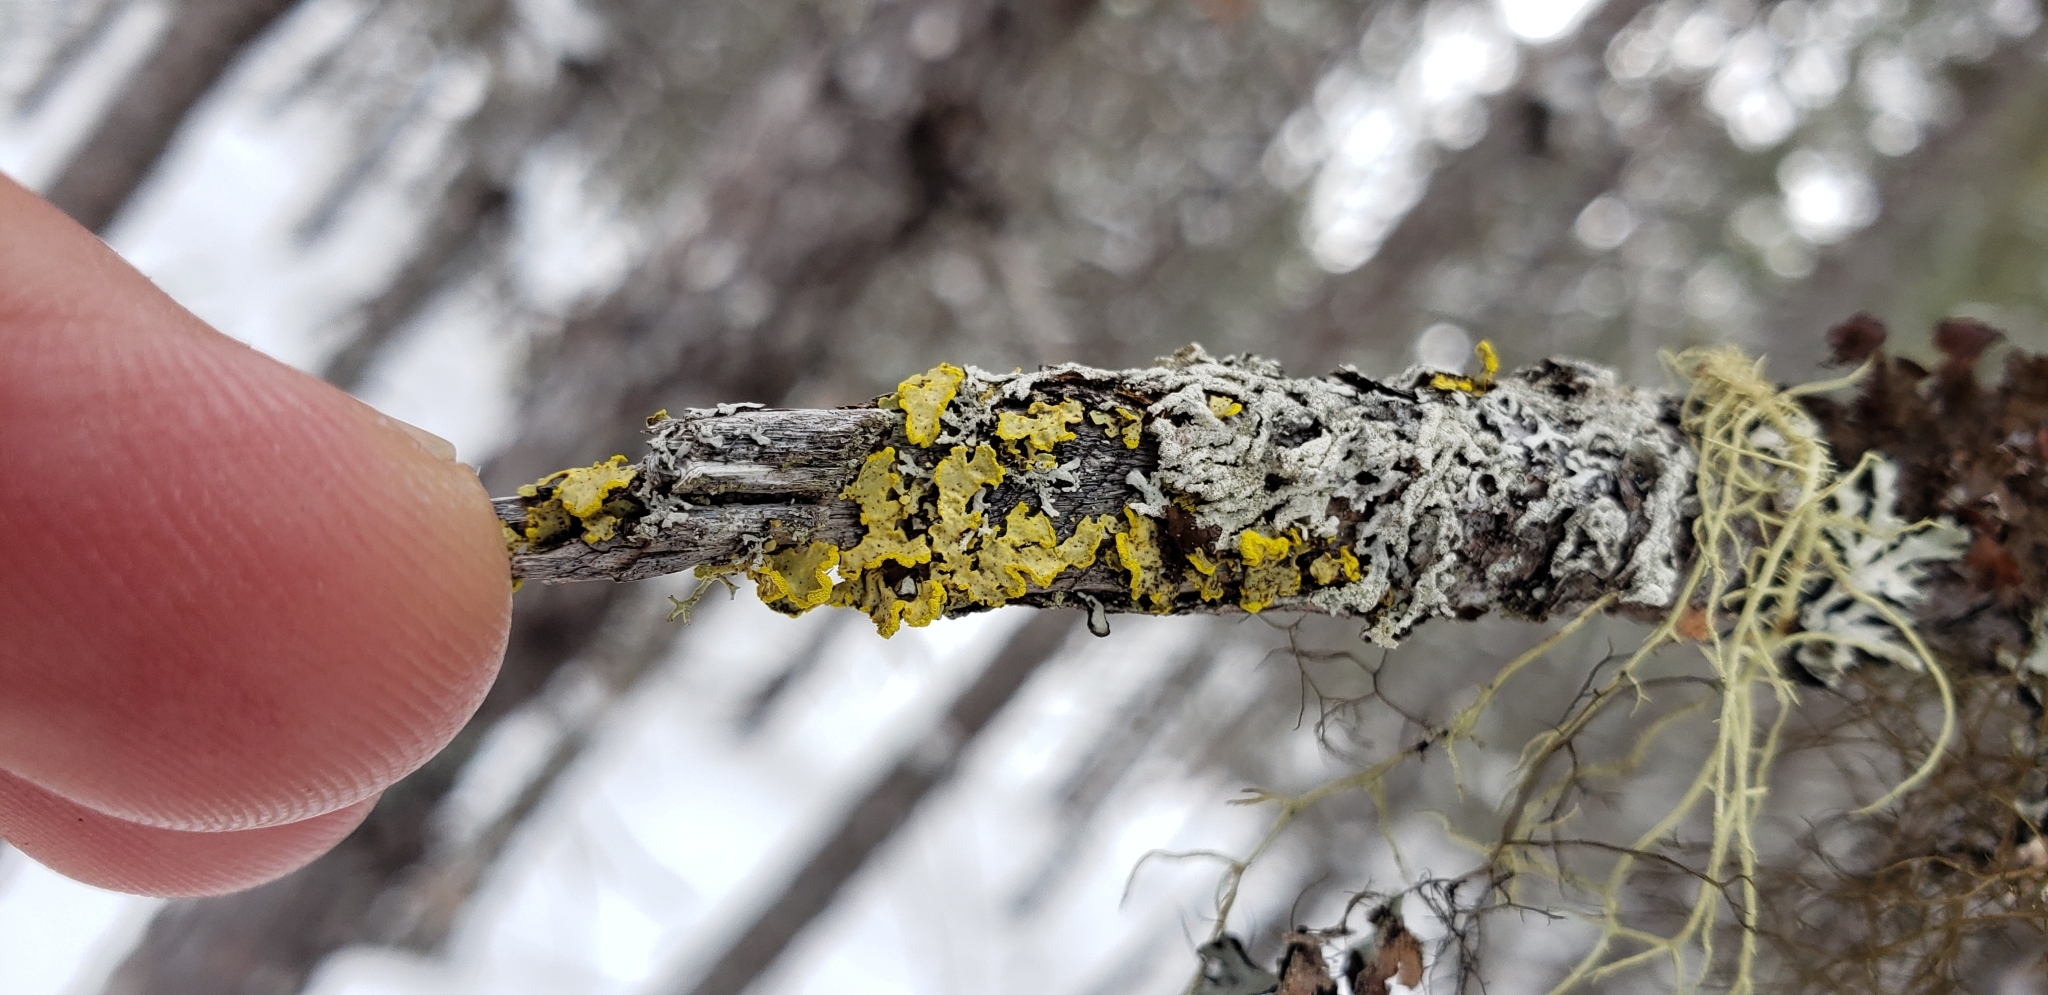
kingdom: Fungi
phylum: Ascomycota
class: Lecanoromycetes
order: Lecanorales
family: Parmeliaceae
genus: Vulpicida
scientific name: Vulpicida pinastri
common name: Powdered sunshine lichen
